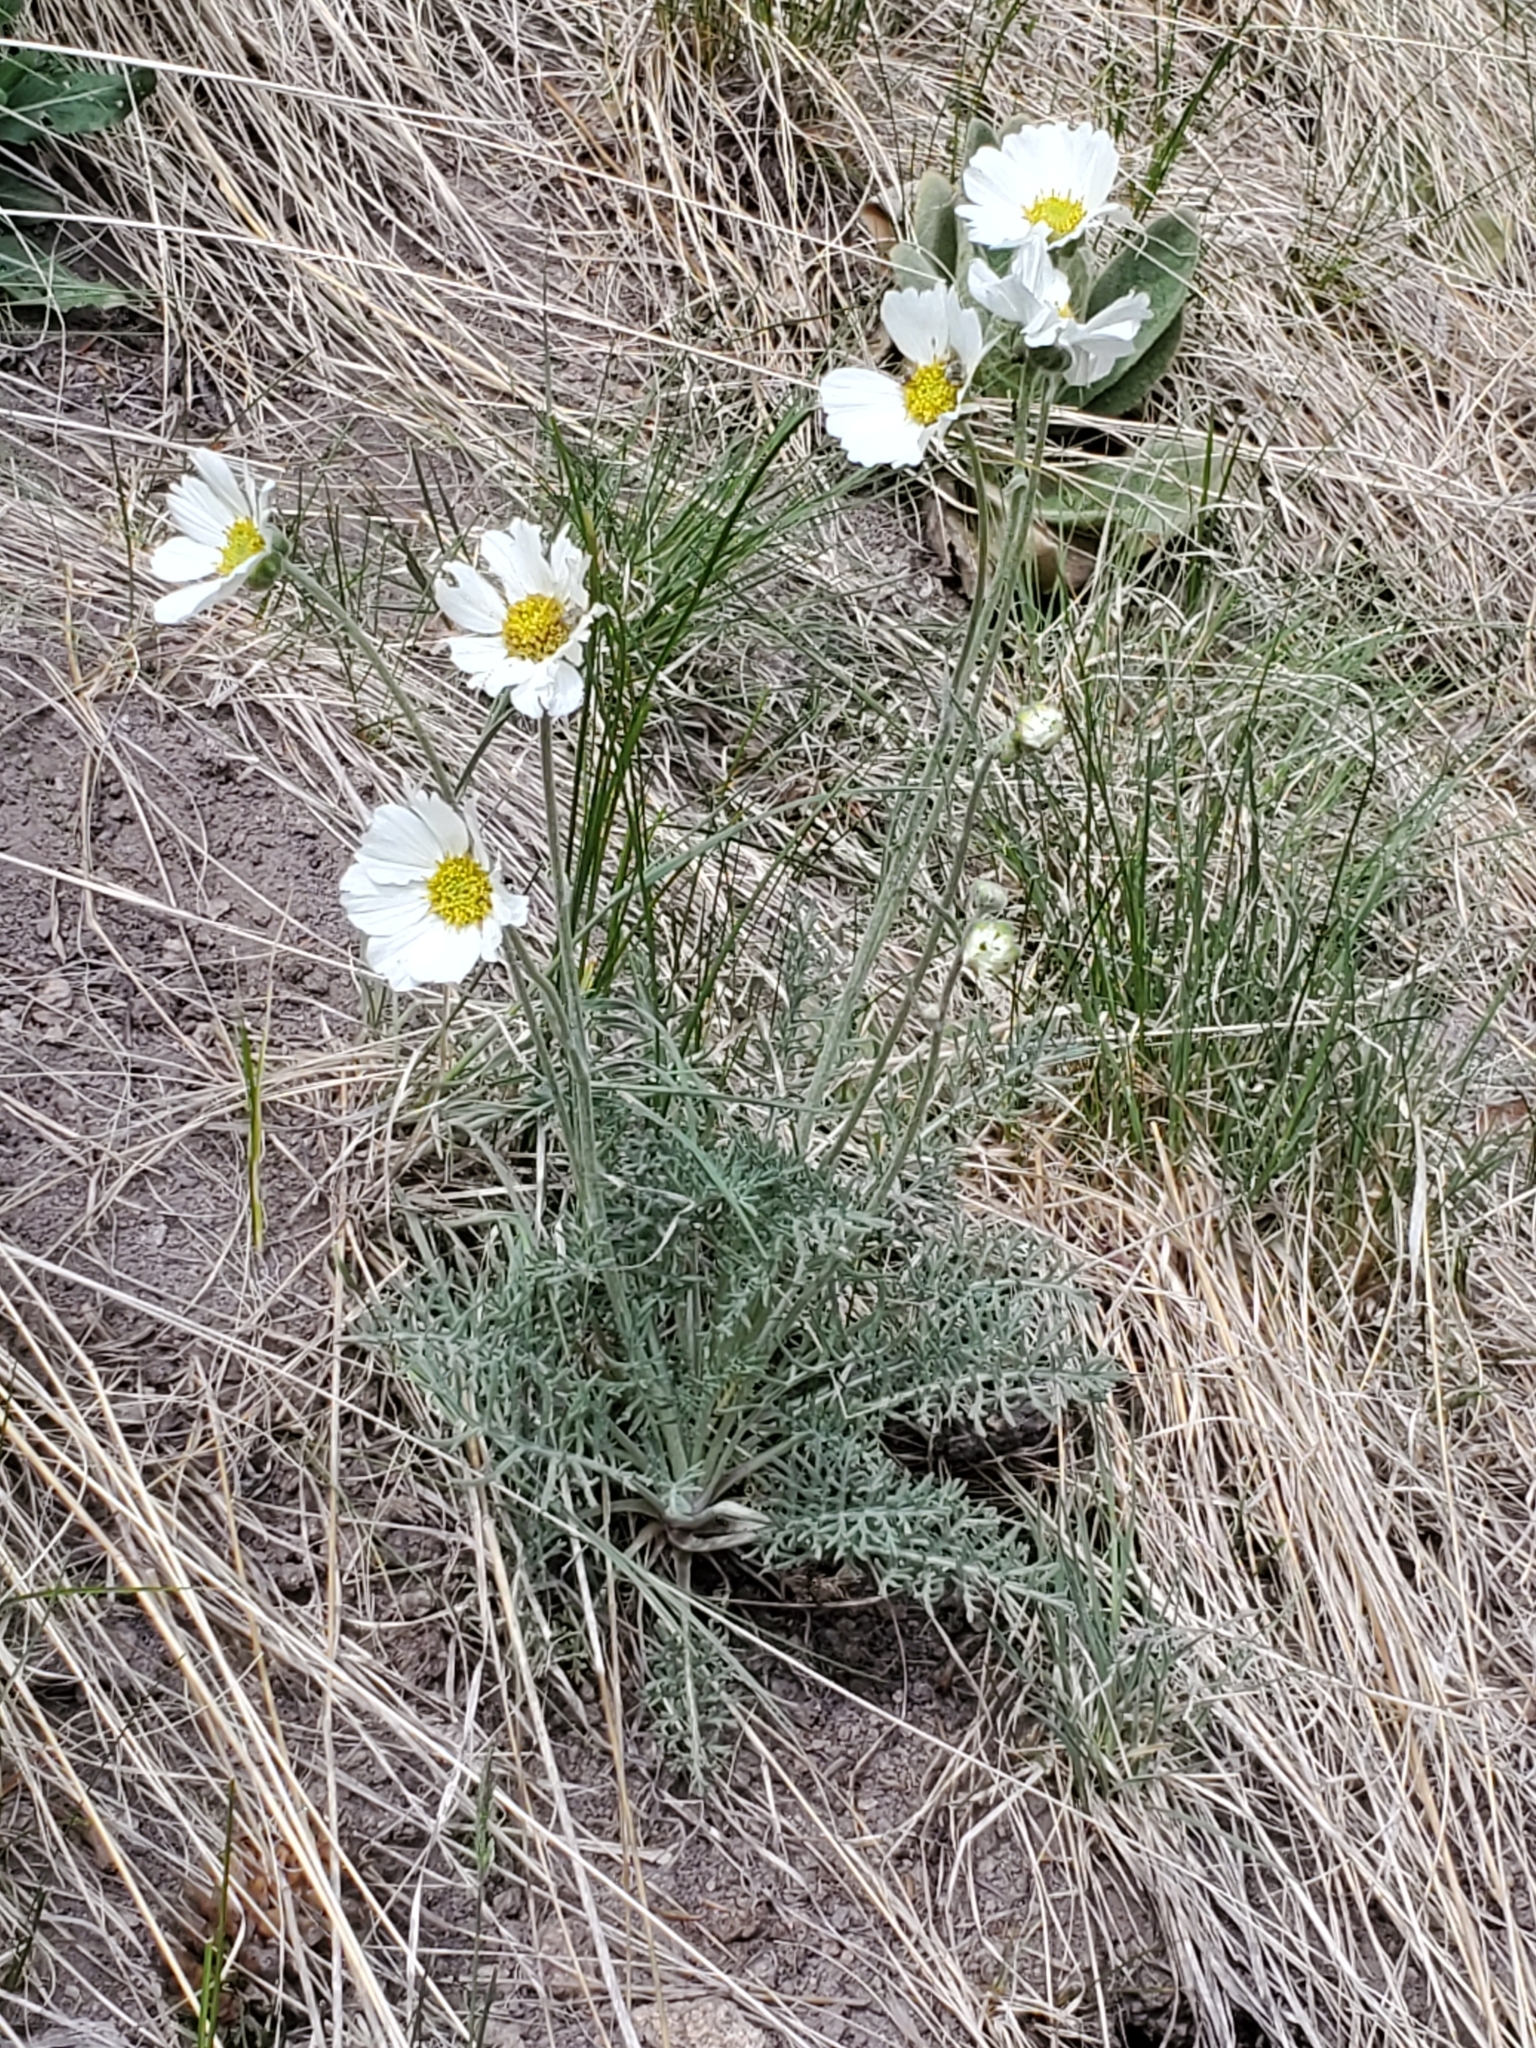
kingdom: Plantae
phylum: Tracheophyta
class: Magnoliopsida
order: Asterales
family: Asteraceae
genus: Hymenopappus
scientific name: Hymenopappus newberryi
